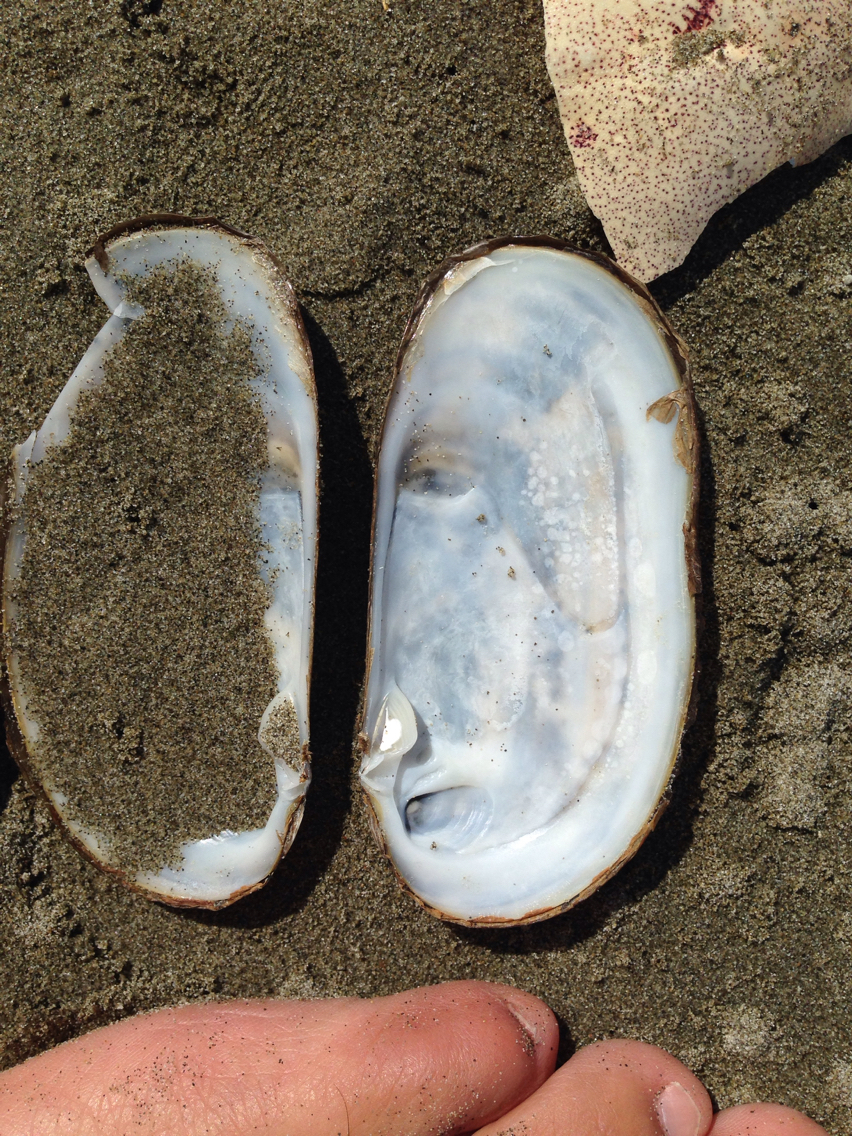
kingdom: Animalia
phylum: Mollusca
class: Bivalvia
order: Venerida
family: Mactridae
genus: Zenatia
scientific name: Zenatia acinaces
